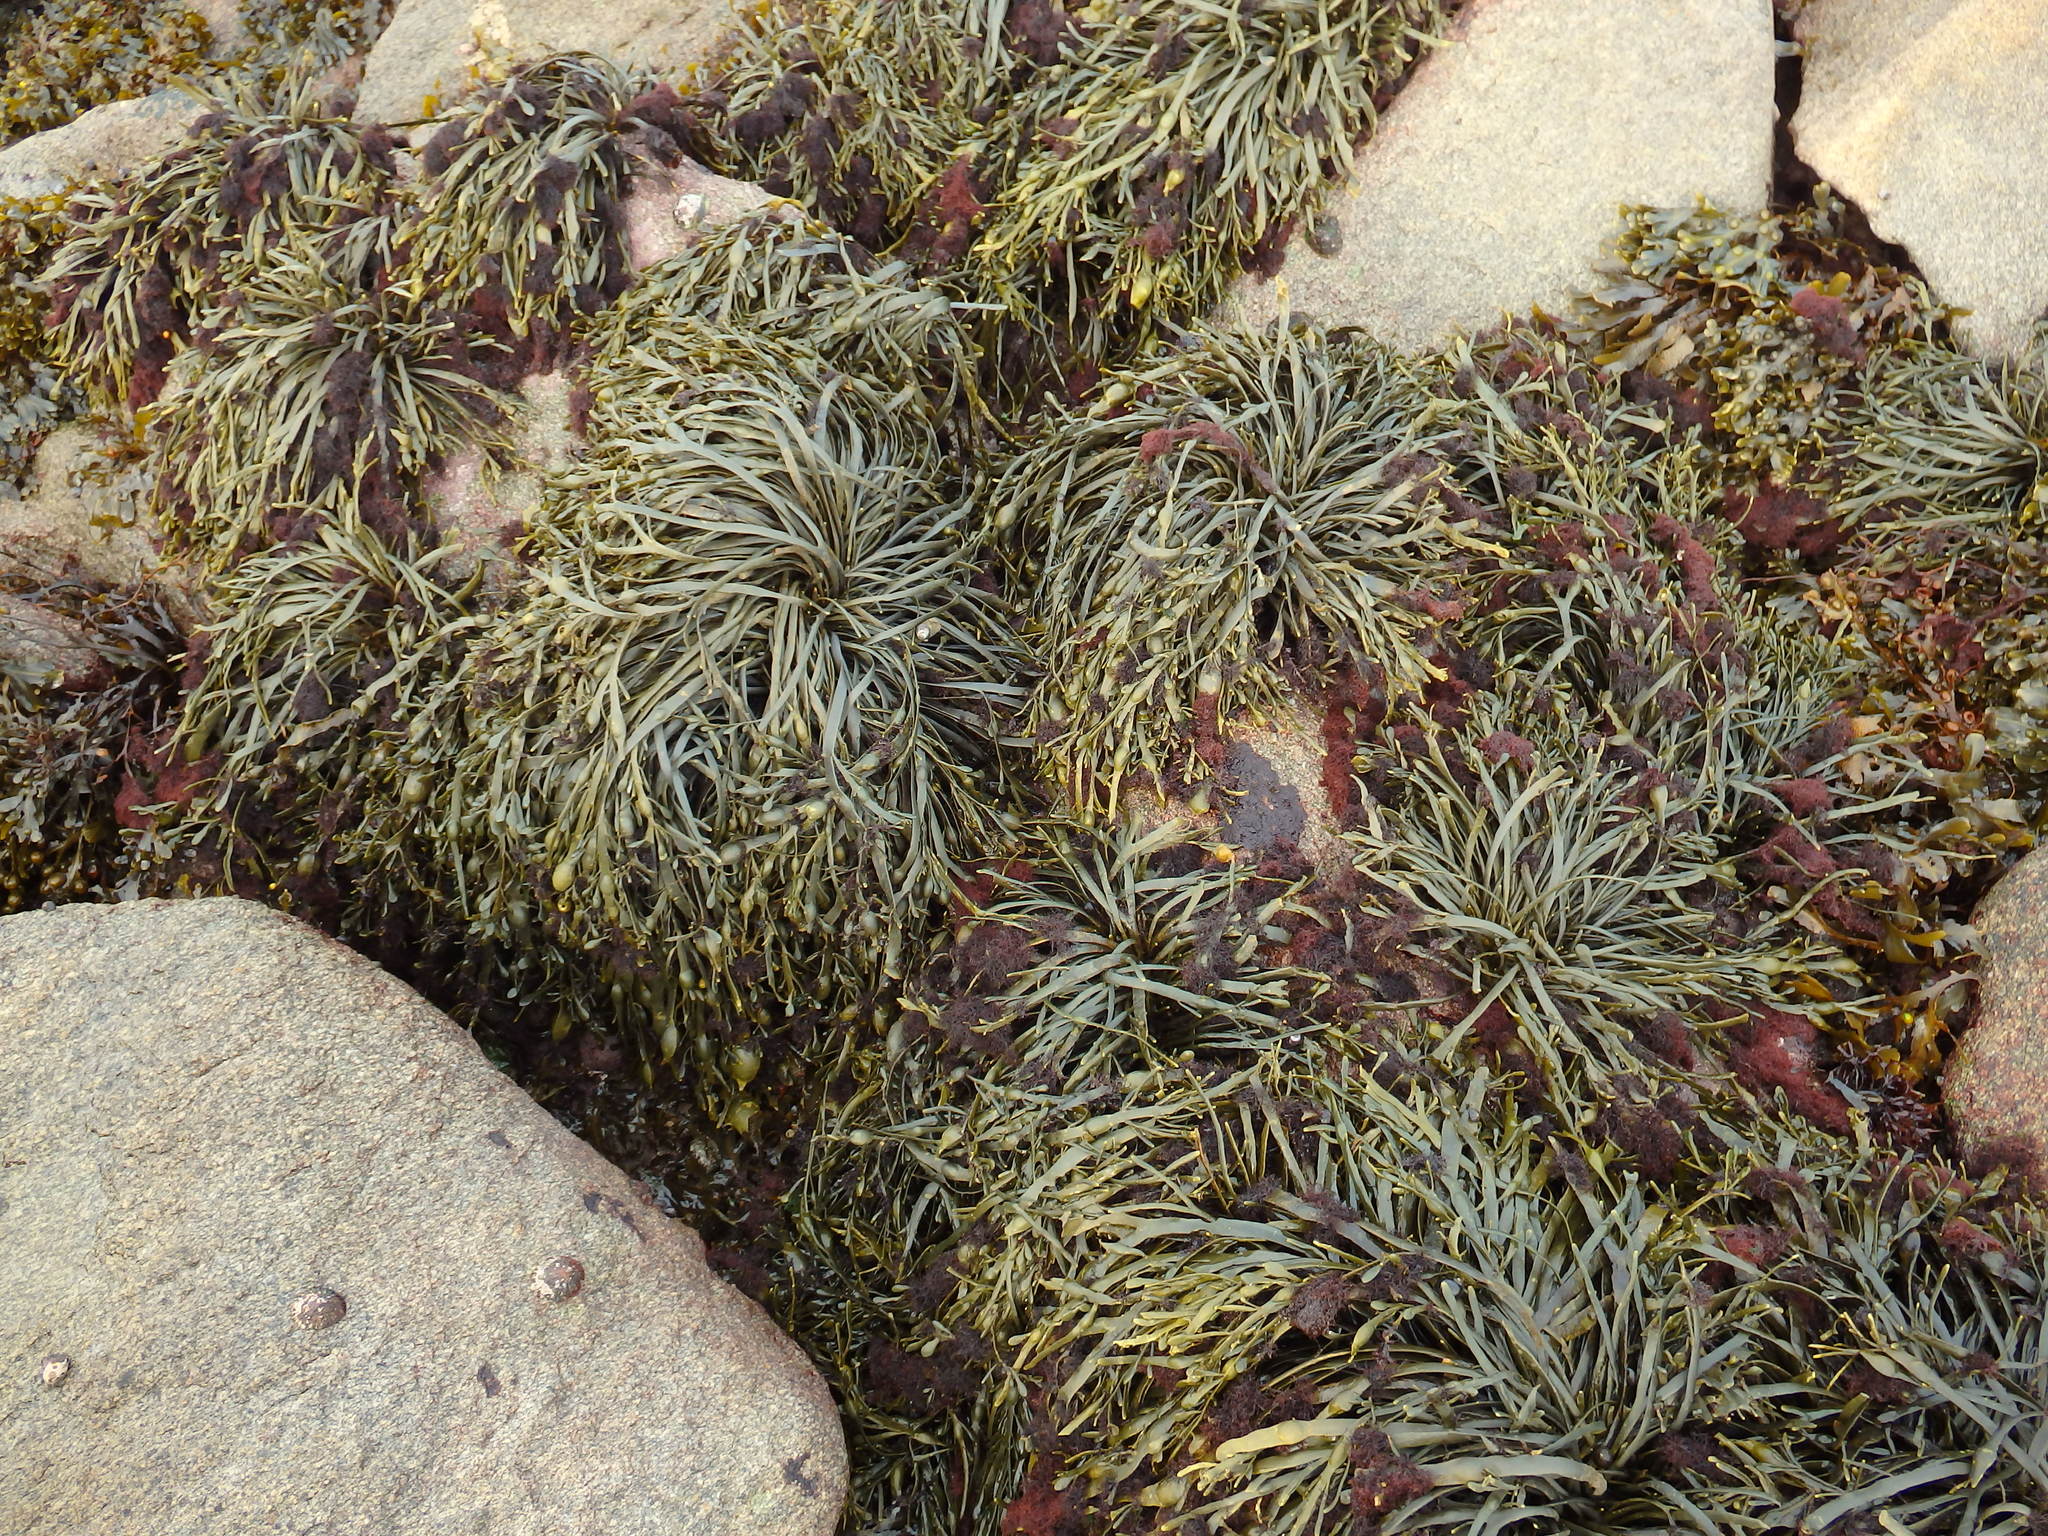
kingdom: Chromista
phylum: Ochrophyta
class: Phaeophyceae
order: Fucales
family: Fucaceae
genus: Ascophyllum
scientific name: Ascophyllum nodosum
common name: Knotted wrack
